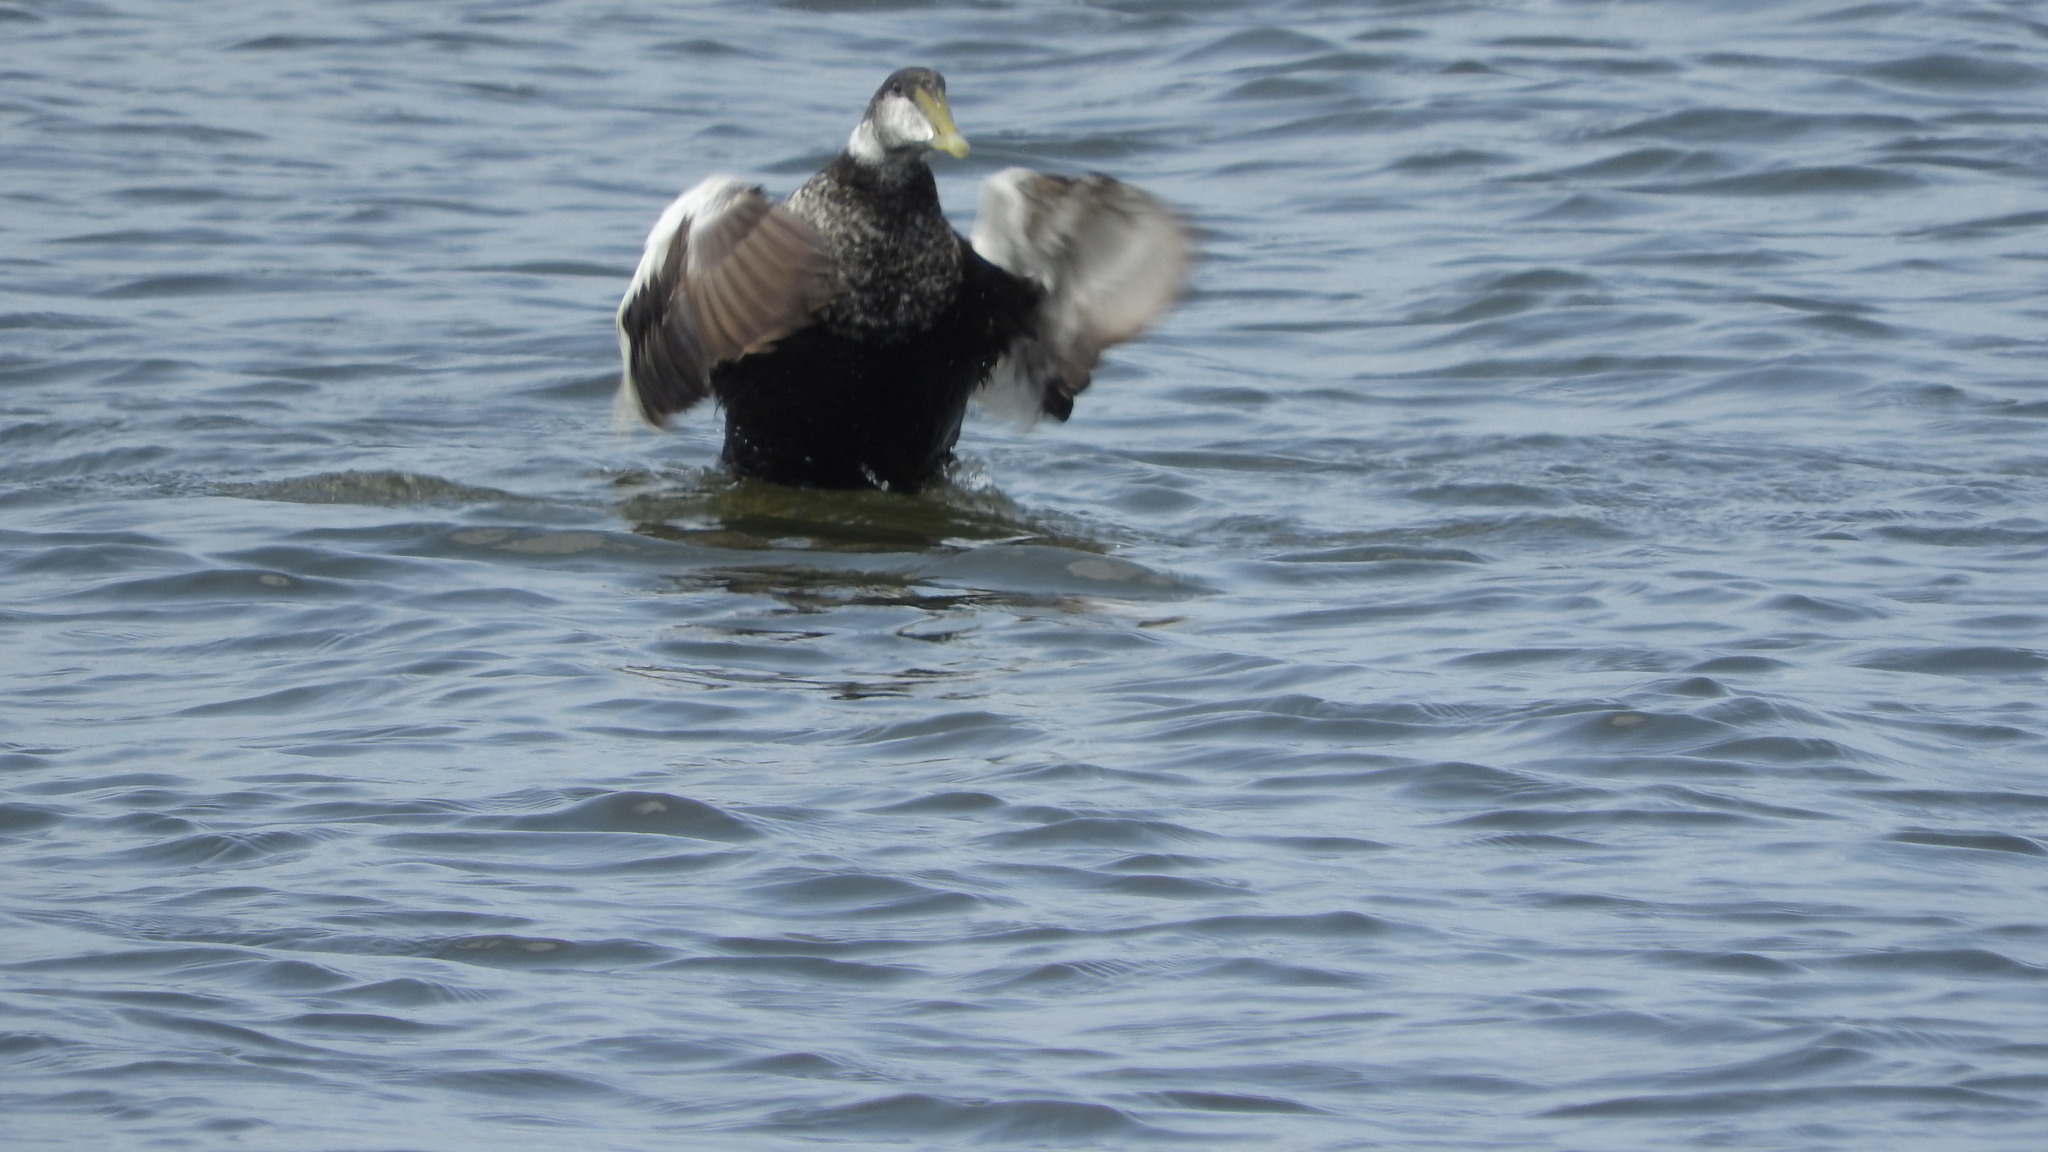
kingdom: Animalia
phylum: Chordata
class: Aves
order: Anseriformes
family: Anatidae
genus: Somateria
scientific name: Somateria mollissima
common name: Common eider
